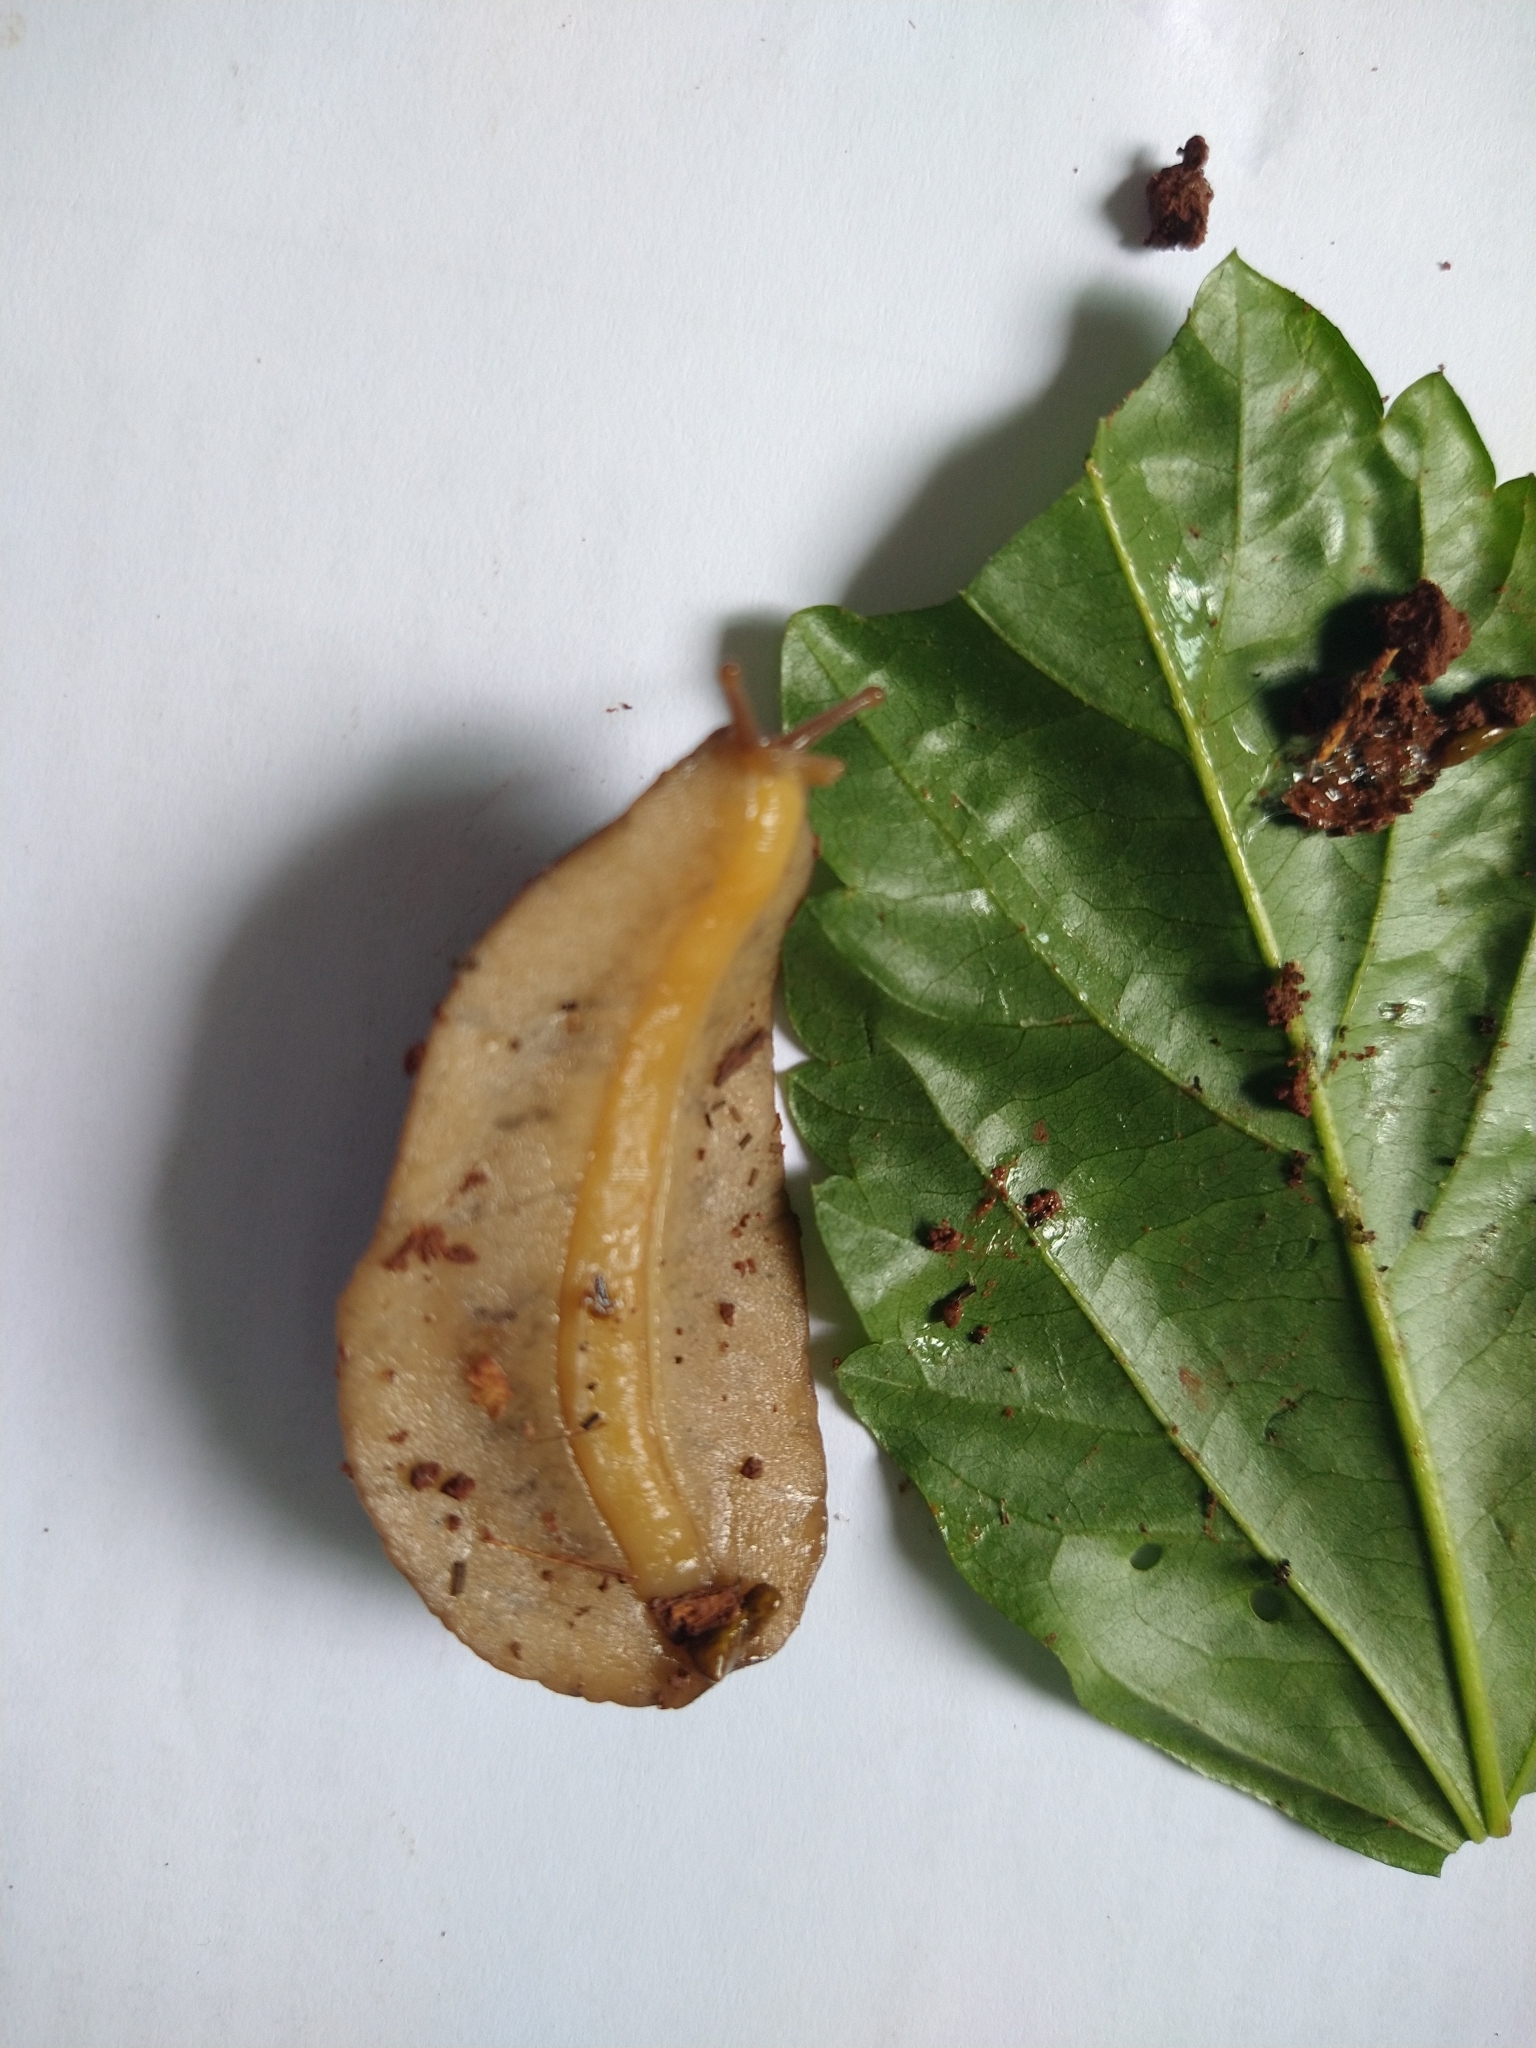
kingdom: Animalia
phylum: Mollusca
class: Gastropoda
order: Systellommatophora
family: Veronicellidae
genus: Sarasinula
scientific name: Sarasinula linguaeformis
